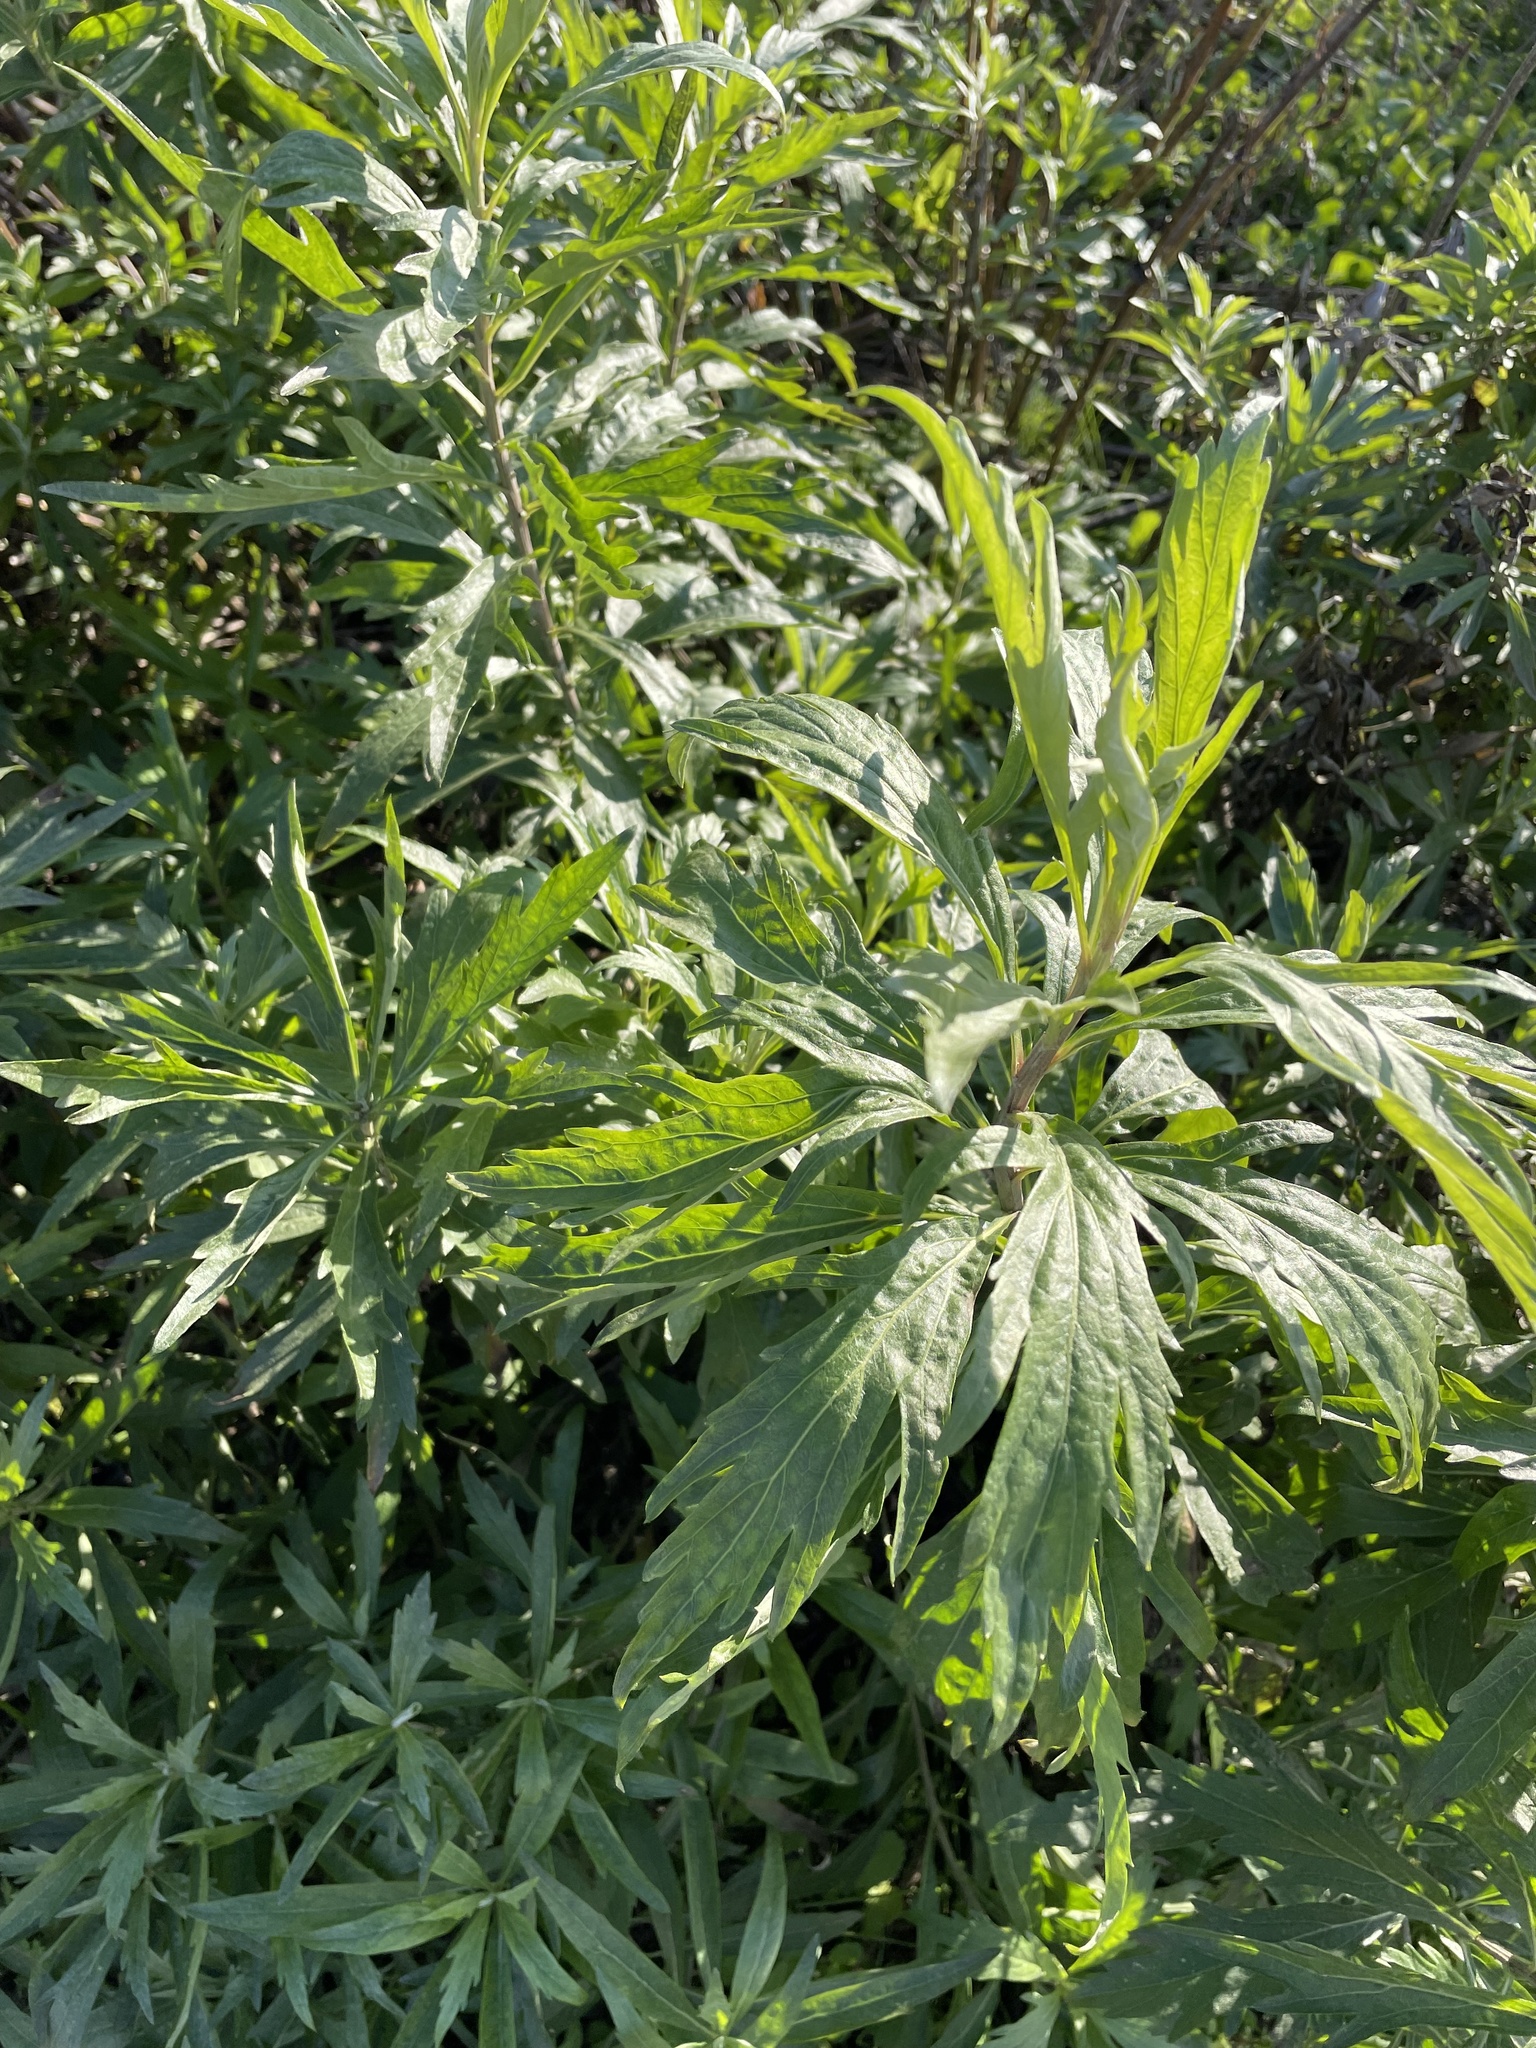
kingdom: Plantae
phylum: Tracheophyta
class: Magnoliopsida
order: Asterales
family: Asteraceae
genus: Artemisia
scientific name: Artemisia douglasiana
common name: Northwest mugwort
